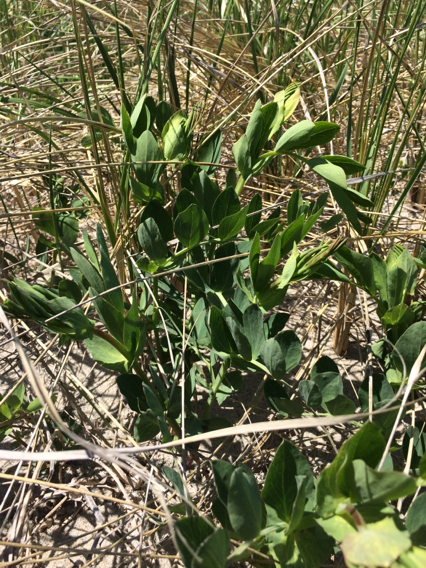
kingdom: Plantae
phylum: Tracheophyta
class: Magnoliopsida
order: Fabales
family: Fabaceae
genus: Lathyrus
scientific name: Lathyrus japonicus
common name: Sea pea
